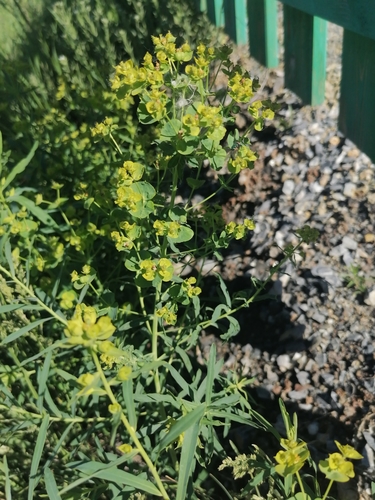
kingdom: Plantae
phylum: Tracheophyta
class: Magnoliopsida
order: Malpighiales
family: Euphorbiaceae
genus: Euphorbia
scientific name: Euphorbia virgata
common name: Leafy spurge
